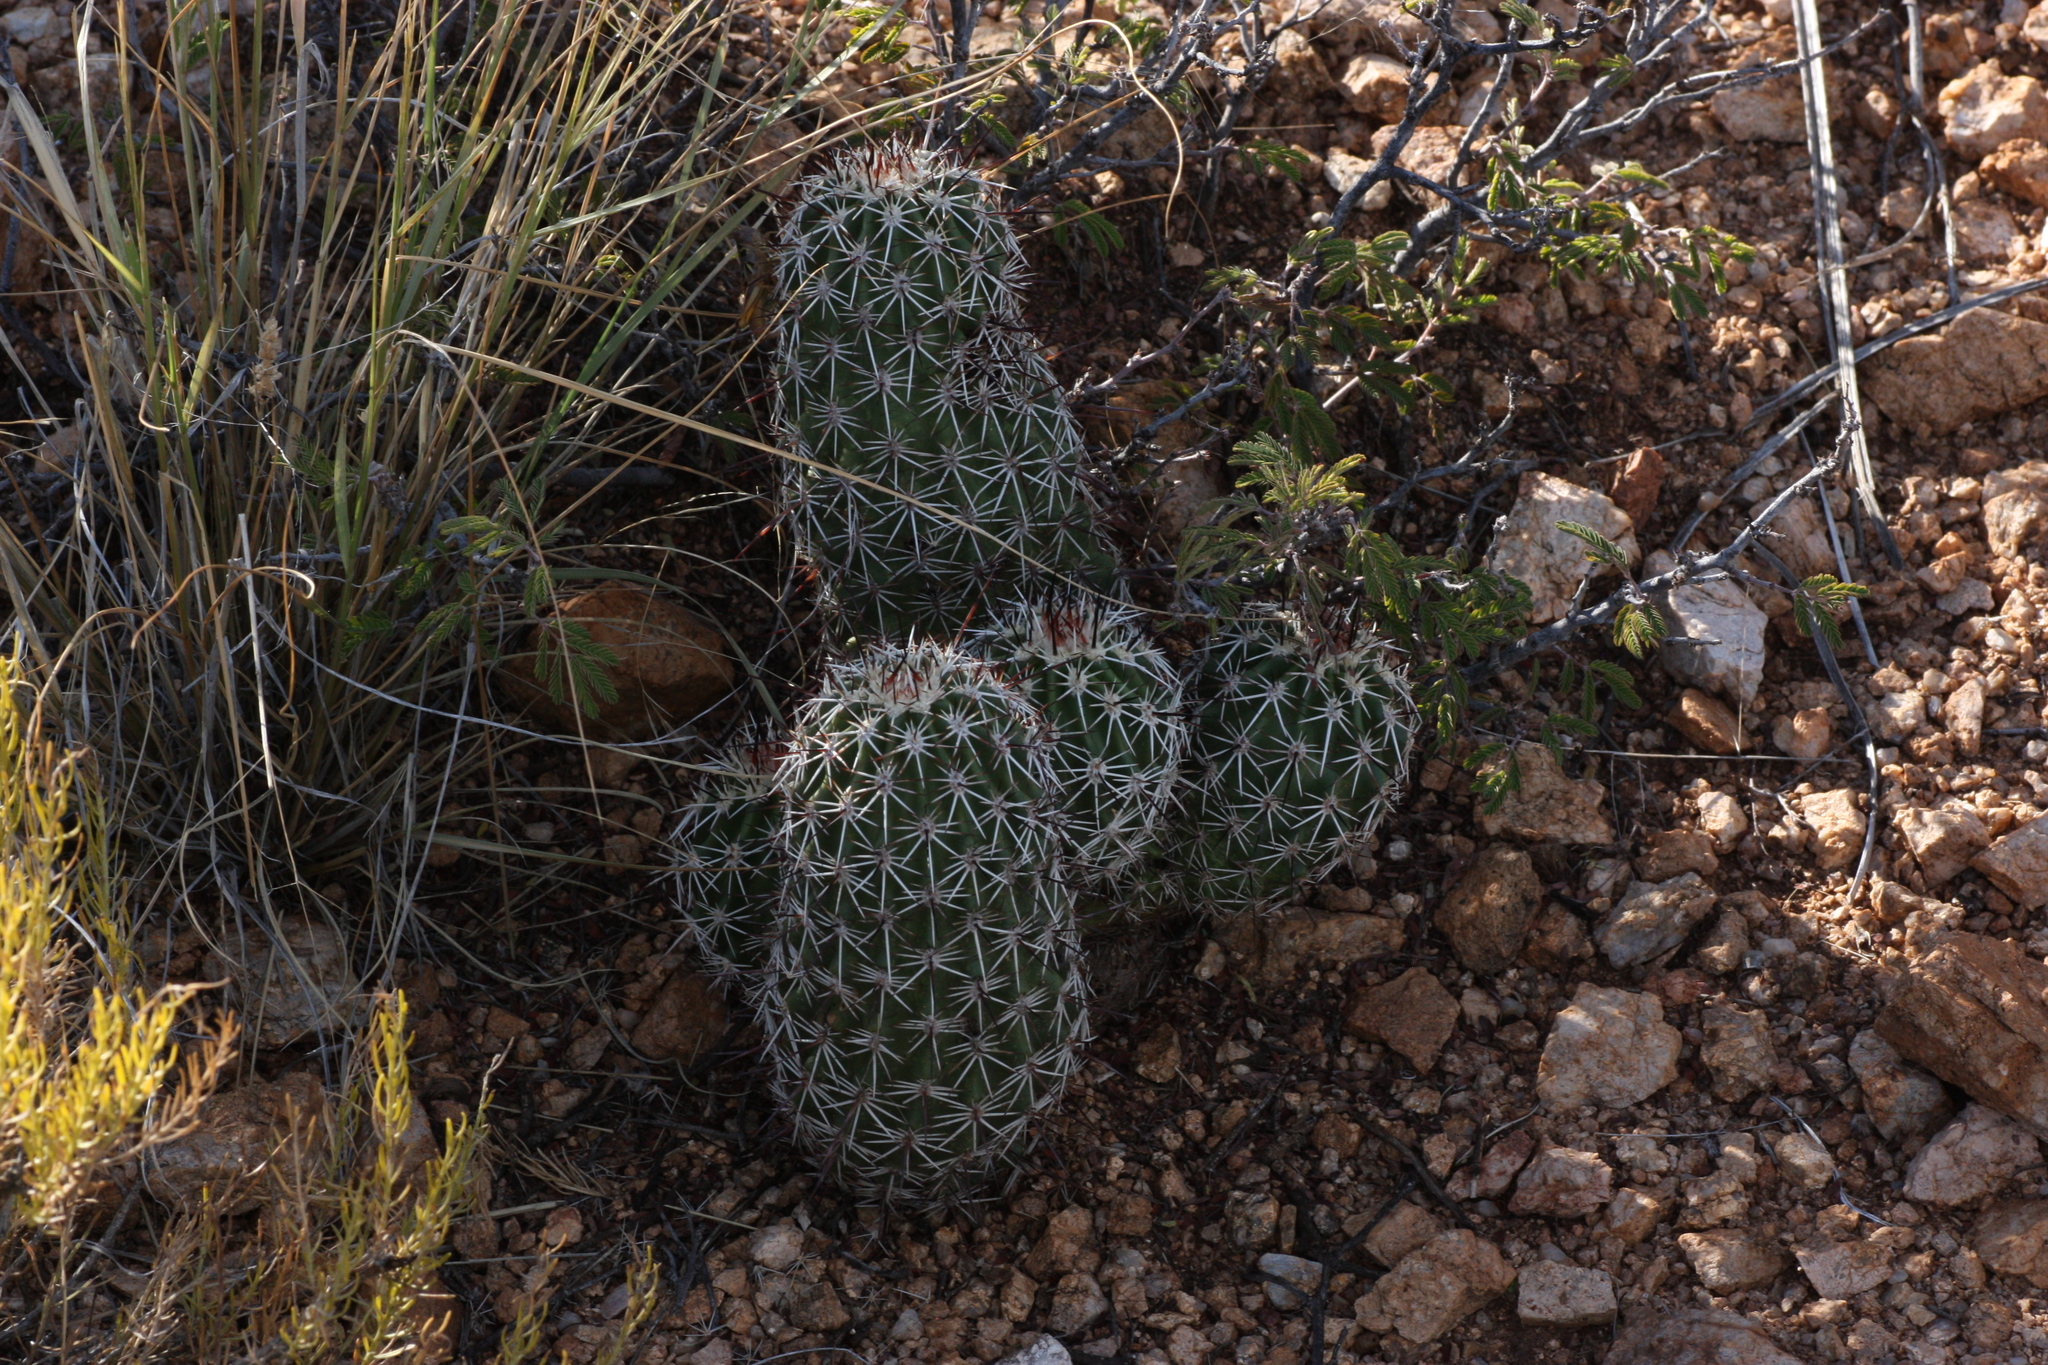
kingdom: Plantae
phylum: Tracheophyta
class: Magnoliopsida
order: Caryophyllales
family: Cactaceae
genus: Echinocereus
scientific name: Echinocereus bonkerae
